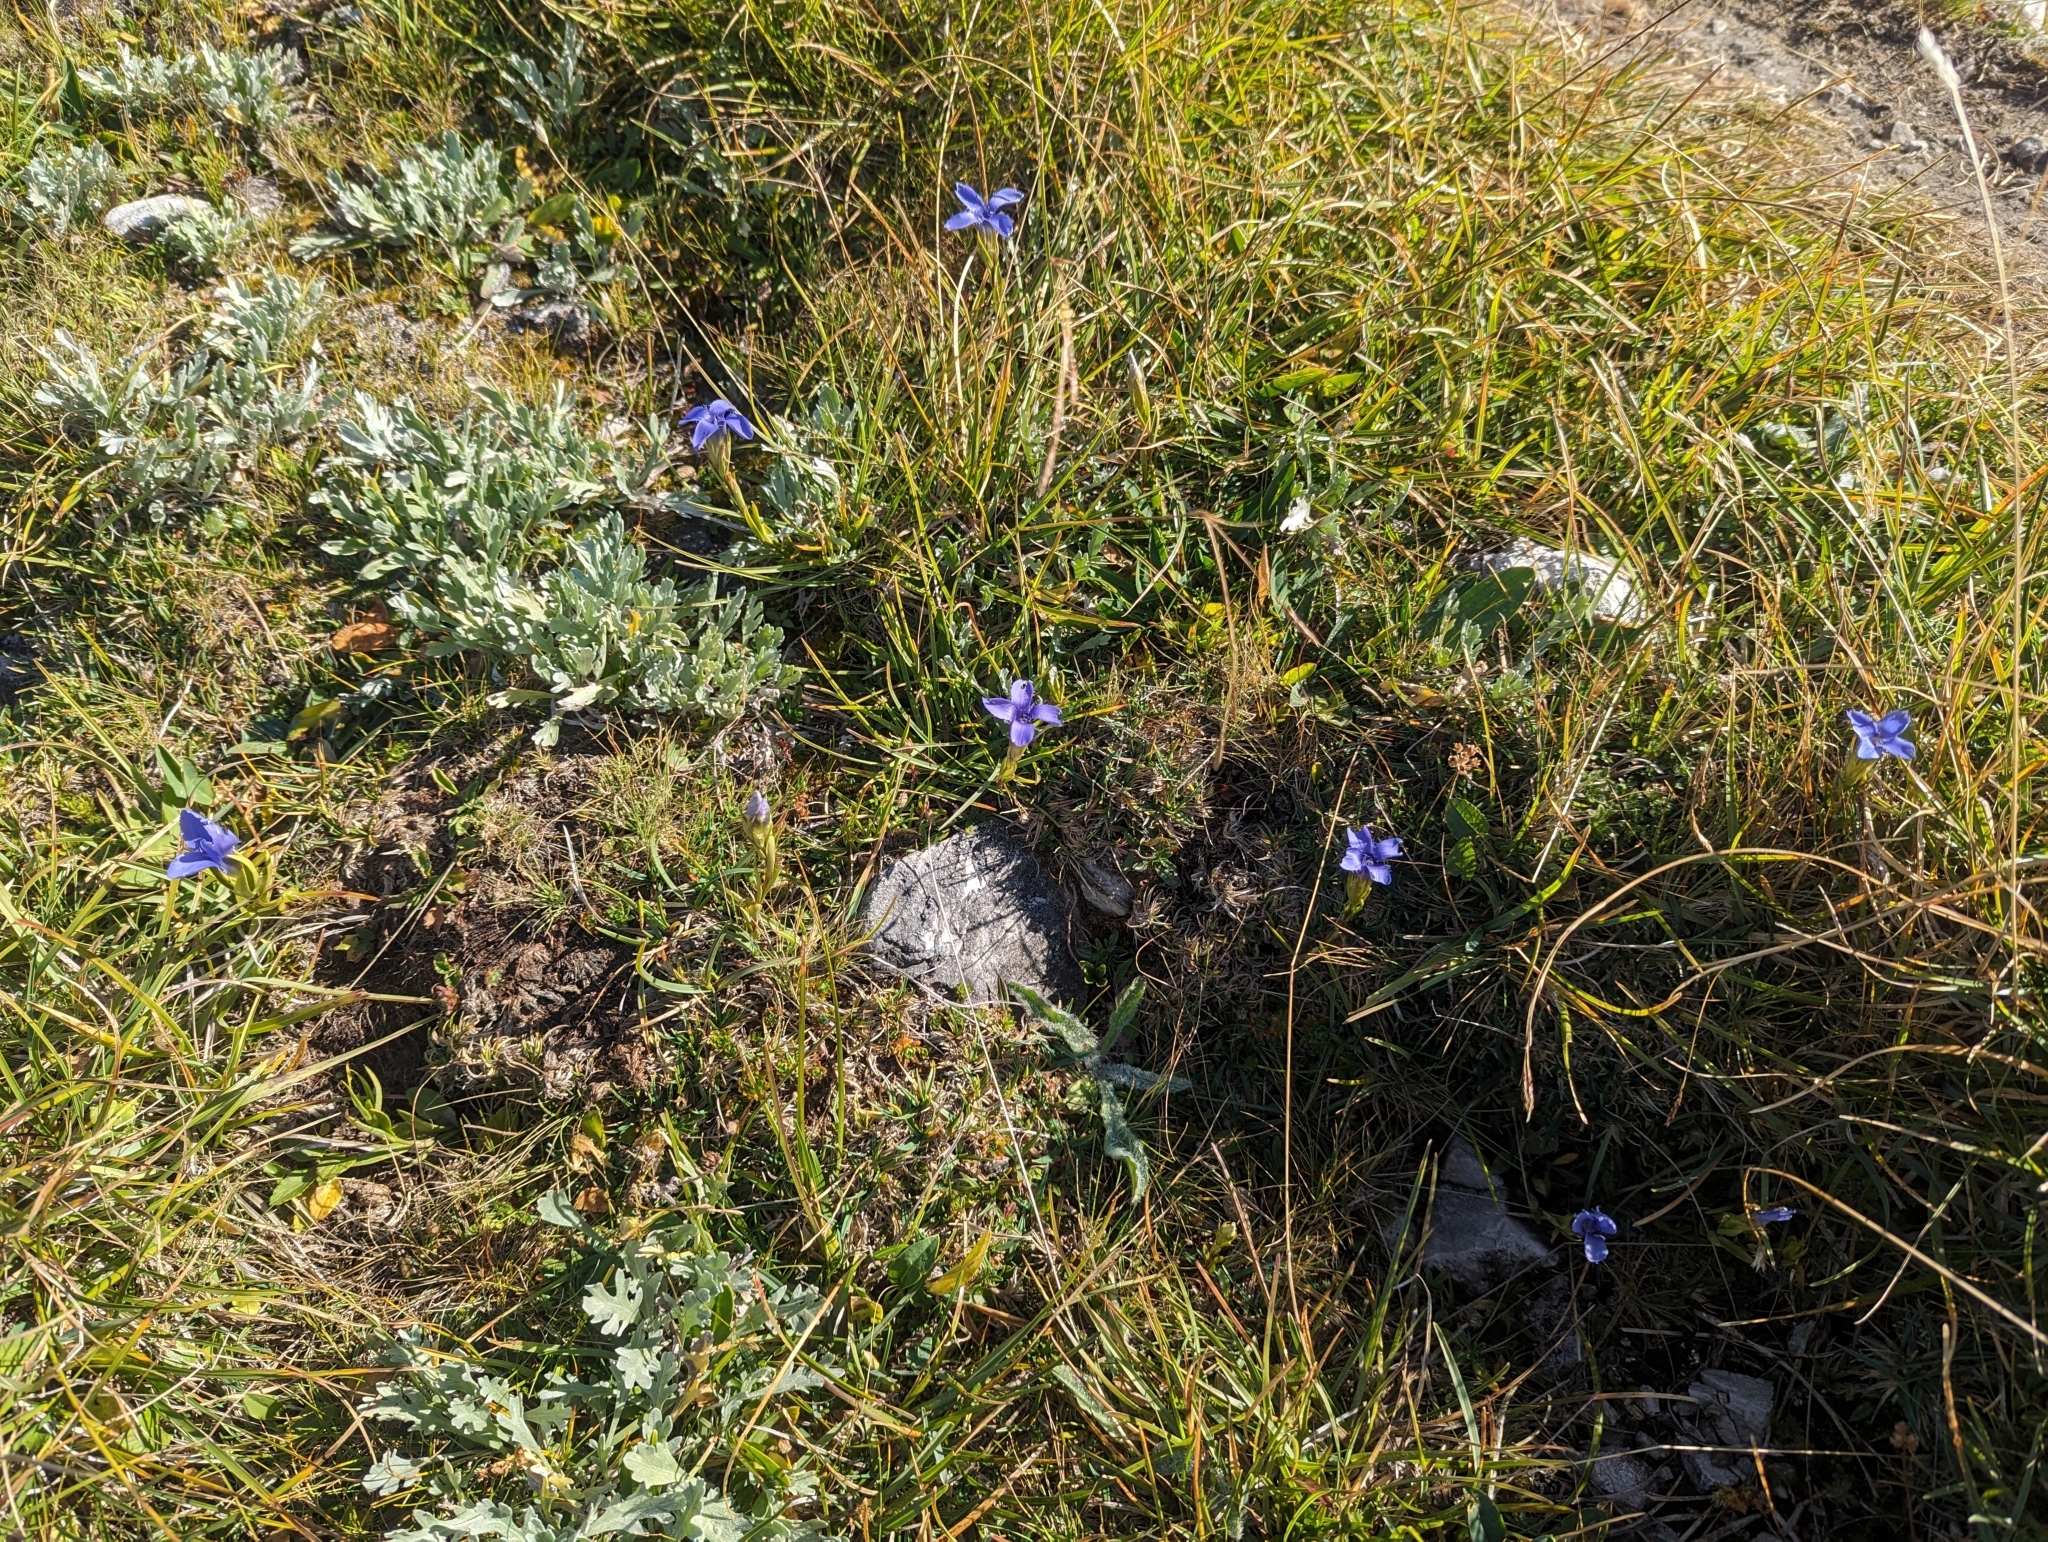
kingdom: Plantae
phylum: Tracheophyta
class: Magnoliopsida
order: Gentianales
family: Gentianaceae
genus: Gentianopsis
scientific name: Gentianopsis ciliata
